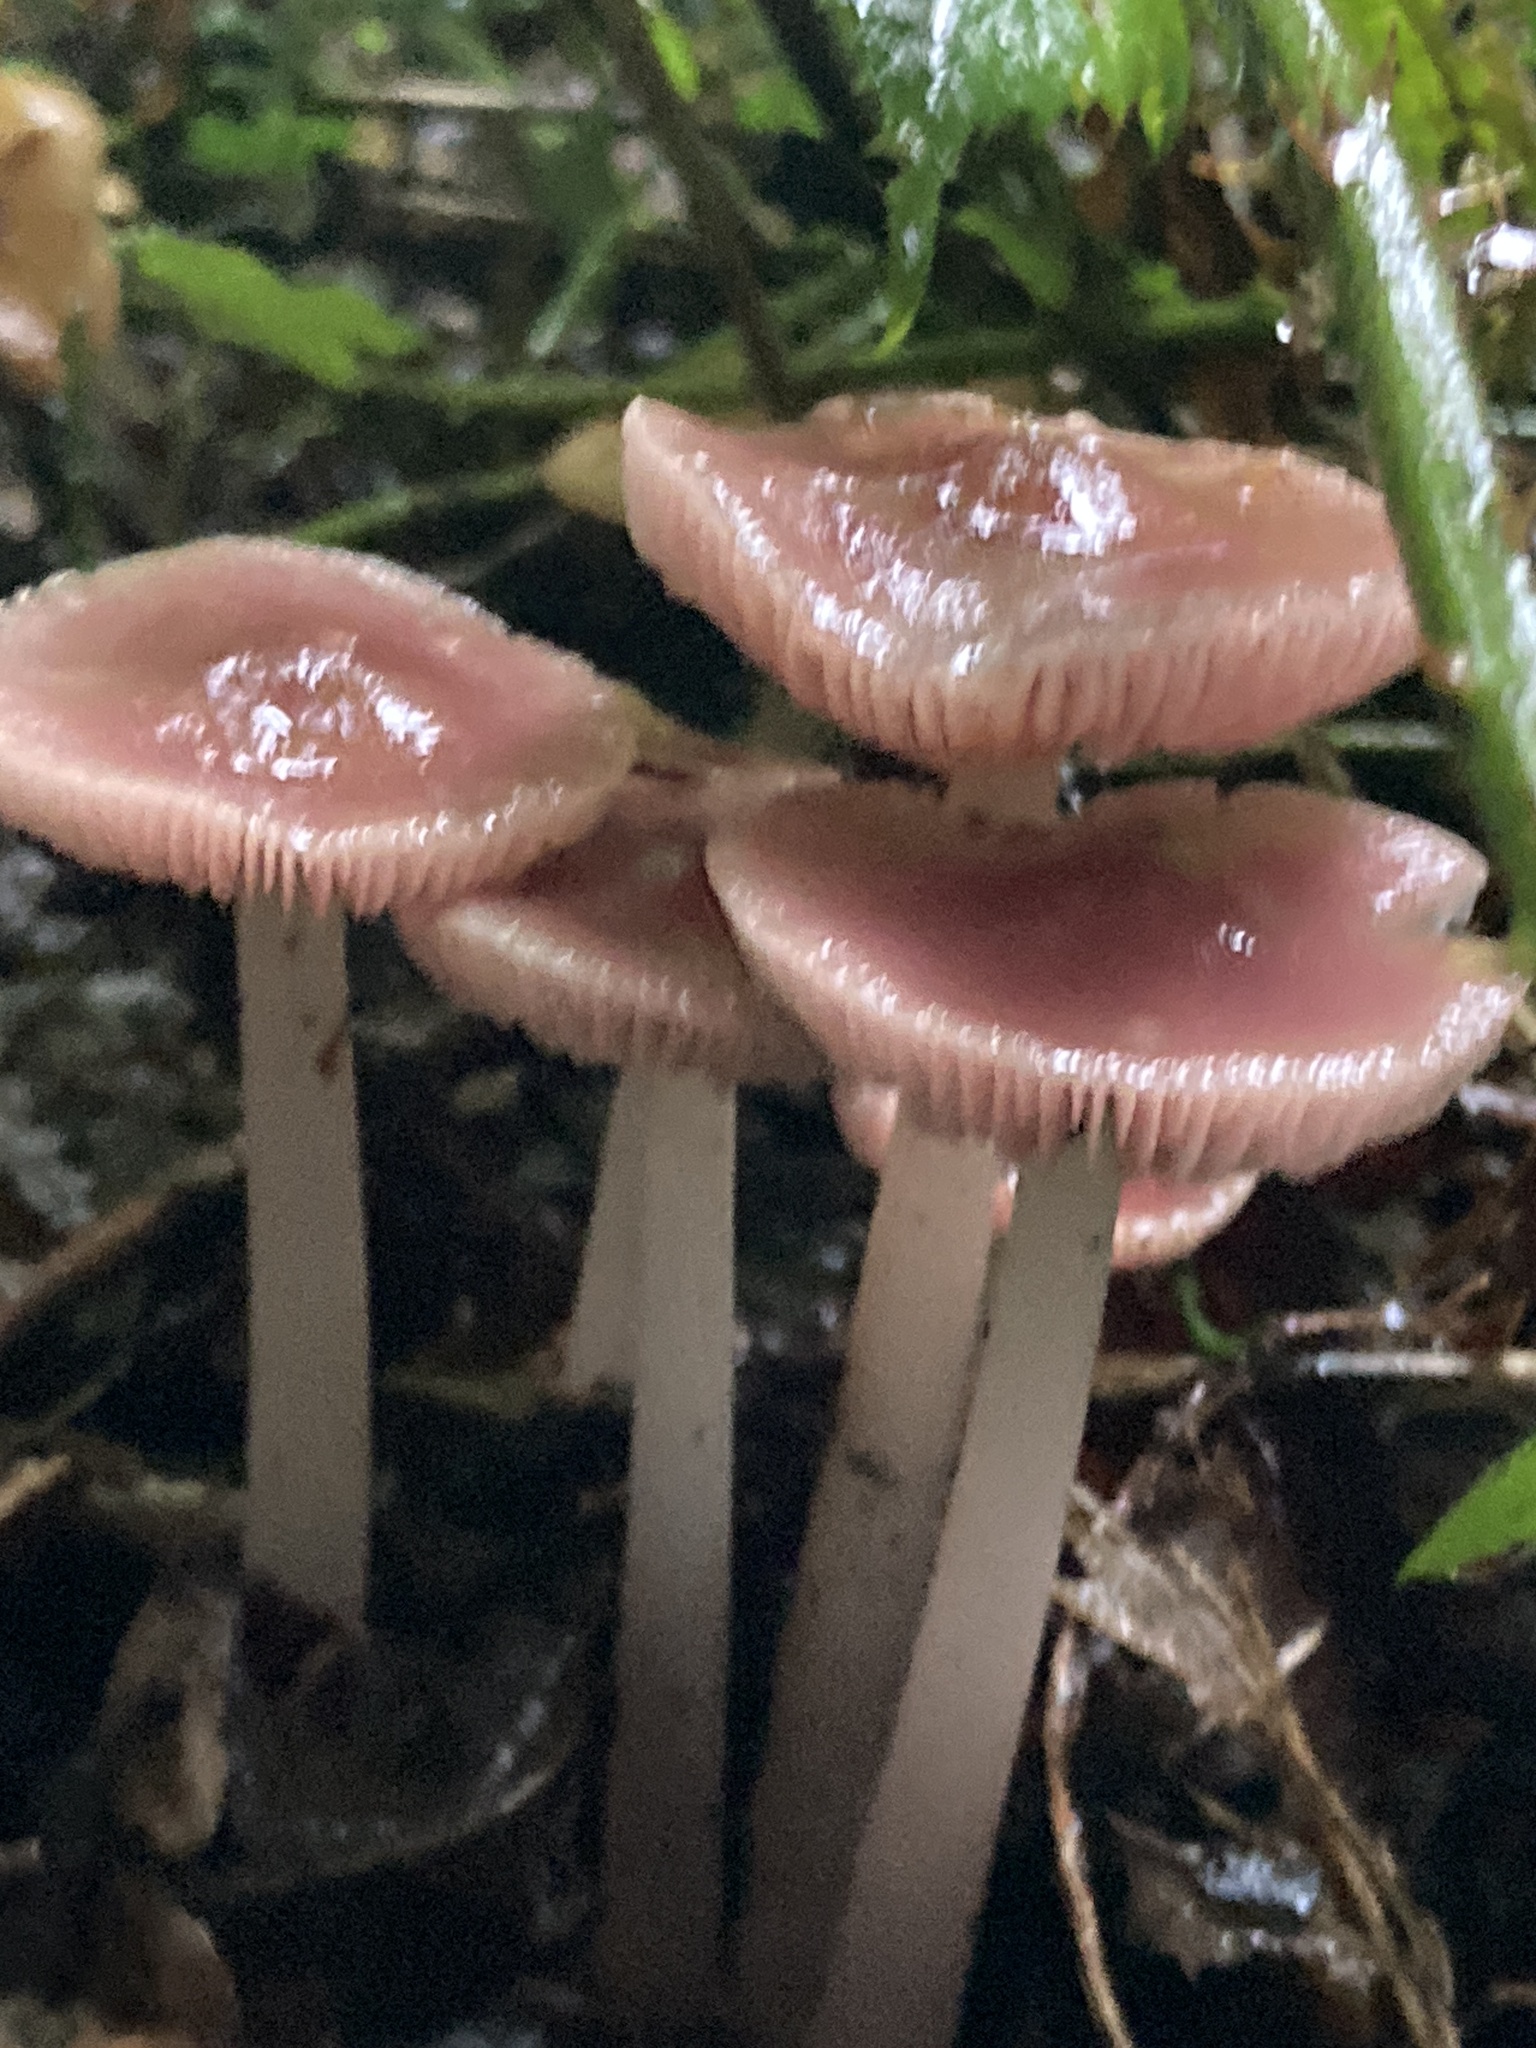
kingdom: Fungi
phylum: Basidiomycota
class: Agaricomycetes
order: Agaricales
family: Mycenaceae
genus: Mycena
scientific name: Mycena rosea
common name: Rosy bonnet
